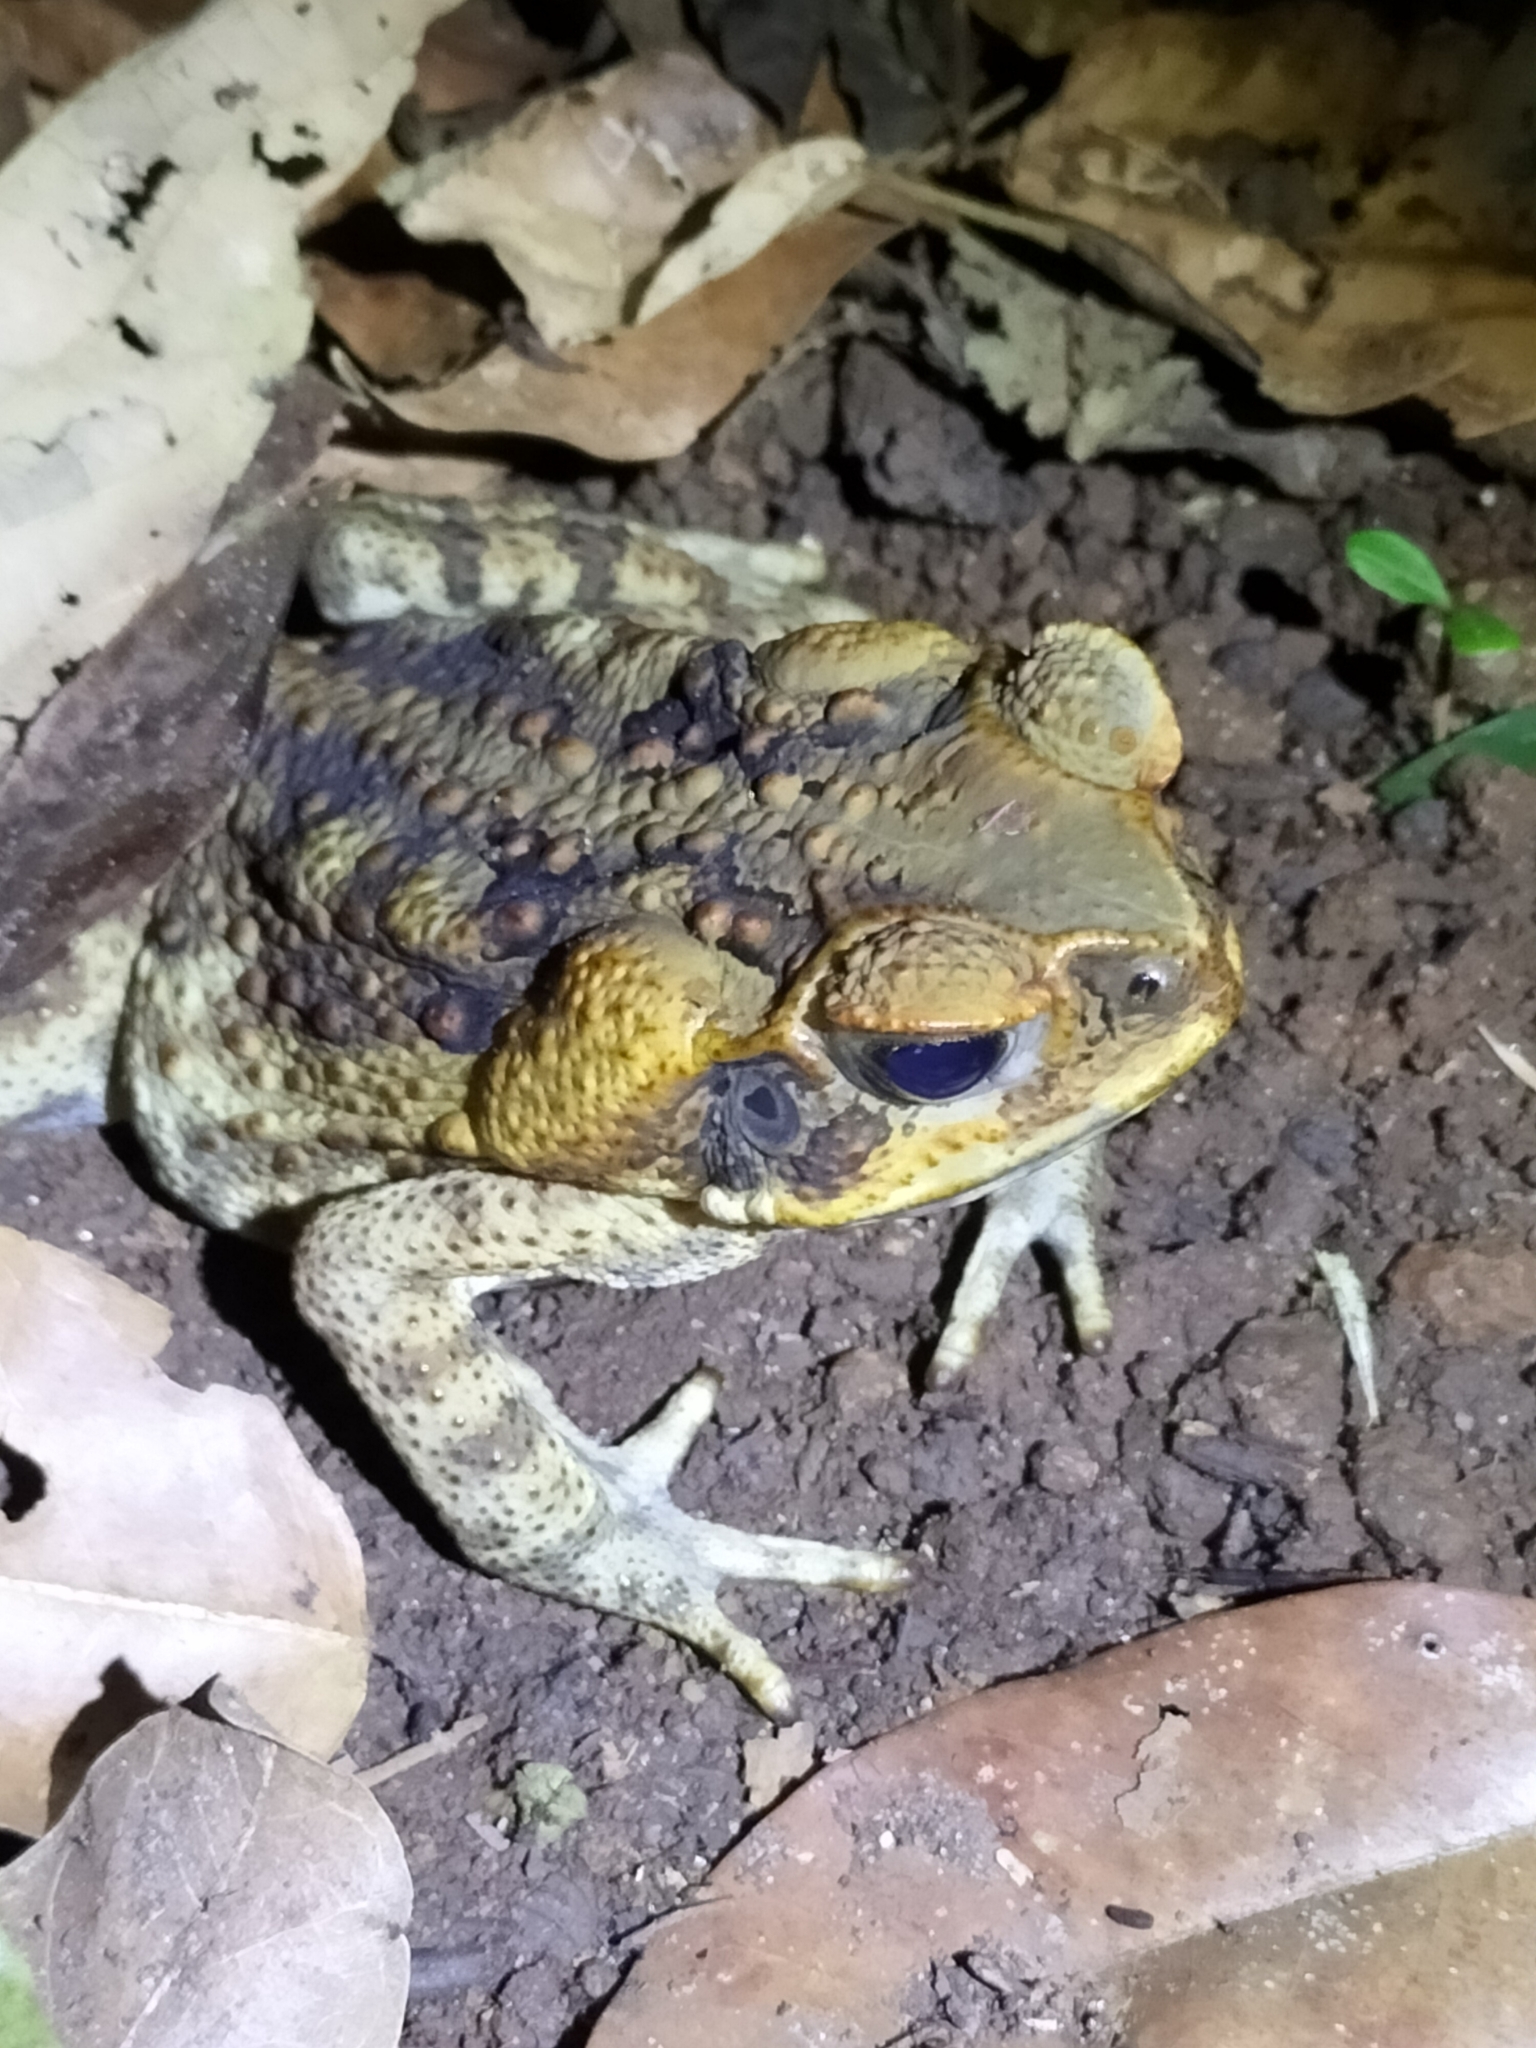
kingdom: Animalia
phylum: Chordata
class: Amphibia
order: Anura
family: Bufonidae
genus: Rhinella
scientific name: Rhinella marina
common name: Cane toad
